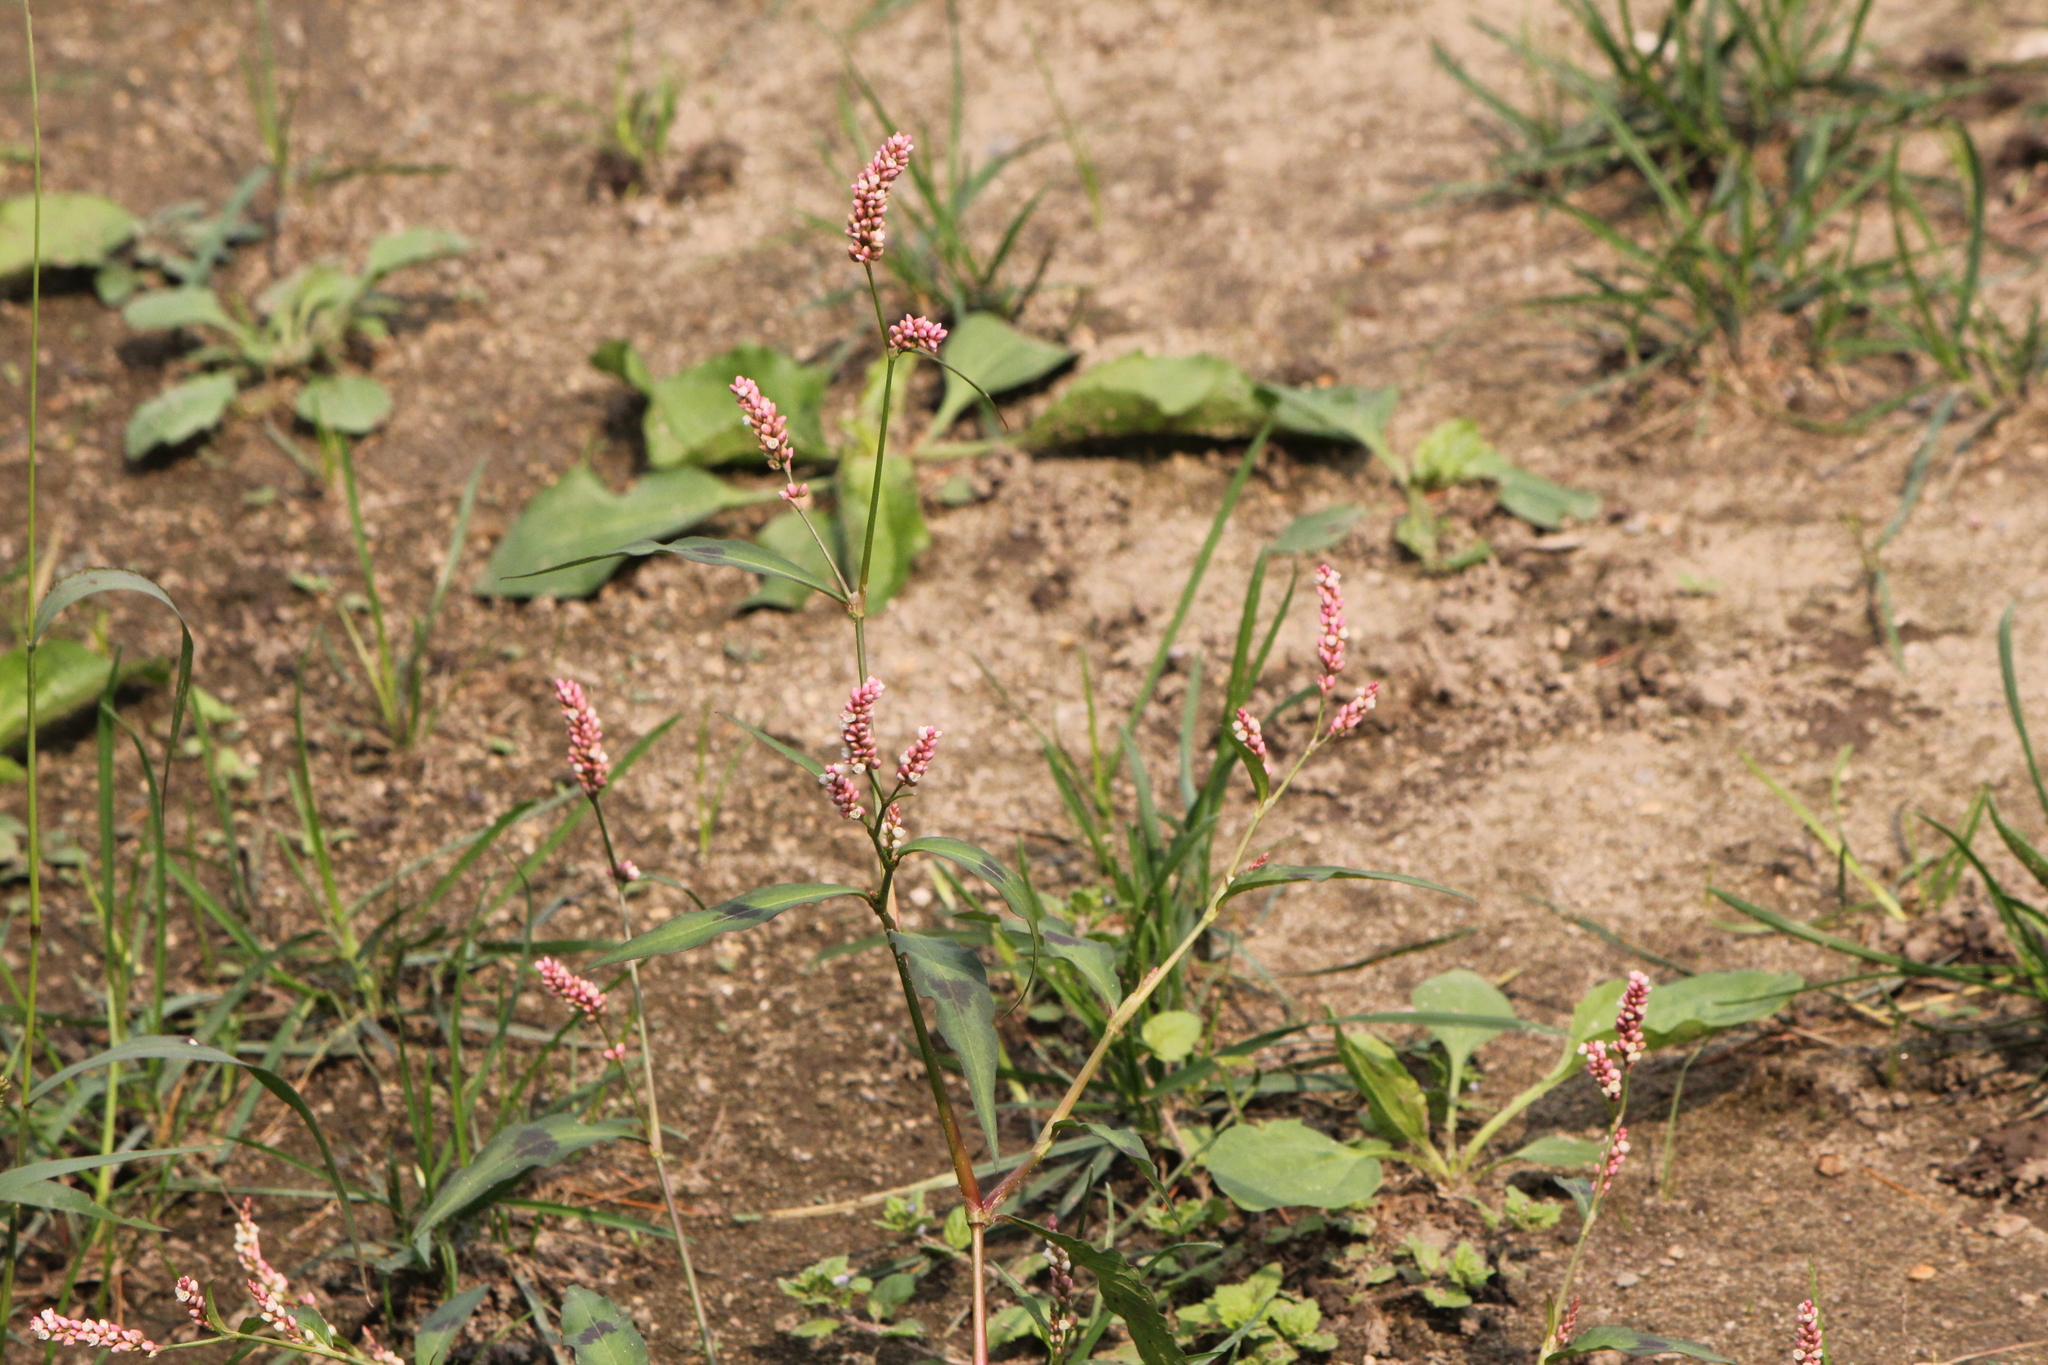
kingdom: Plantae
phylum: Tracheophyta
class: Magnoliopsida
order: Caryophyllales
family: Polygonaceae
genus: Persicaria
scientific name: Persicaria maculosa
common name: Redshank
